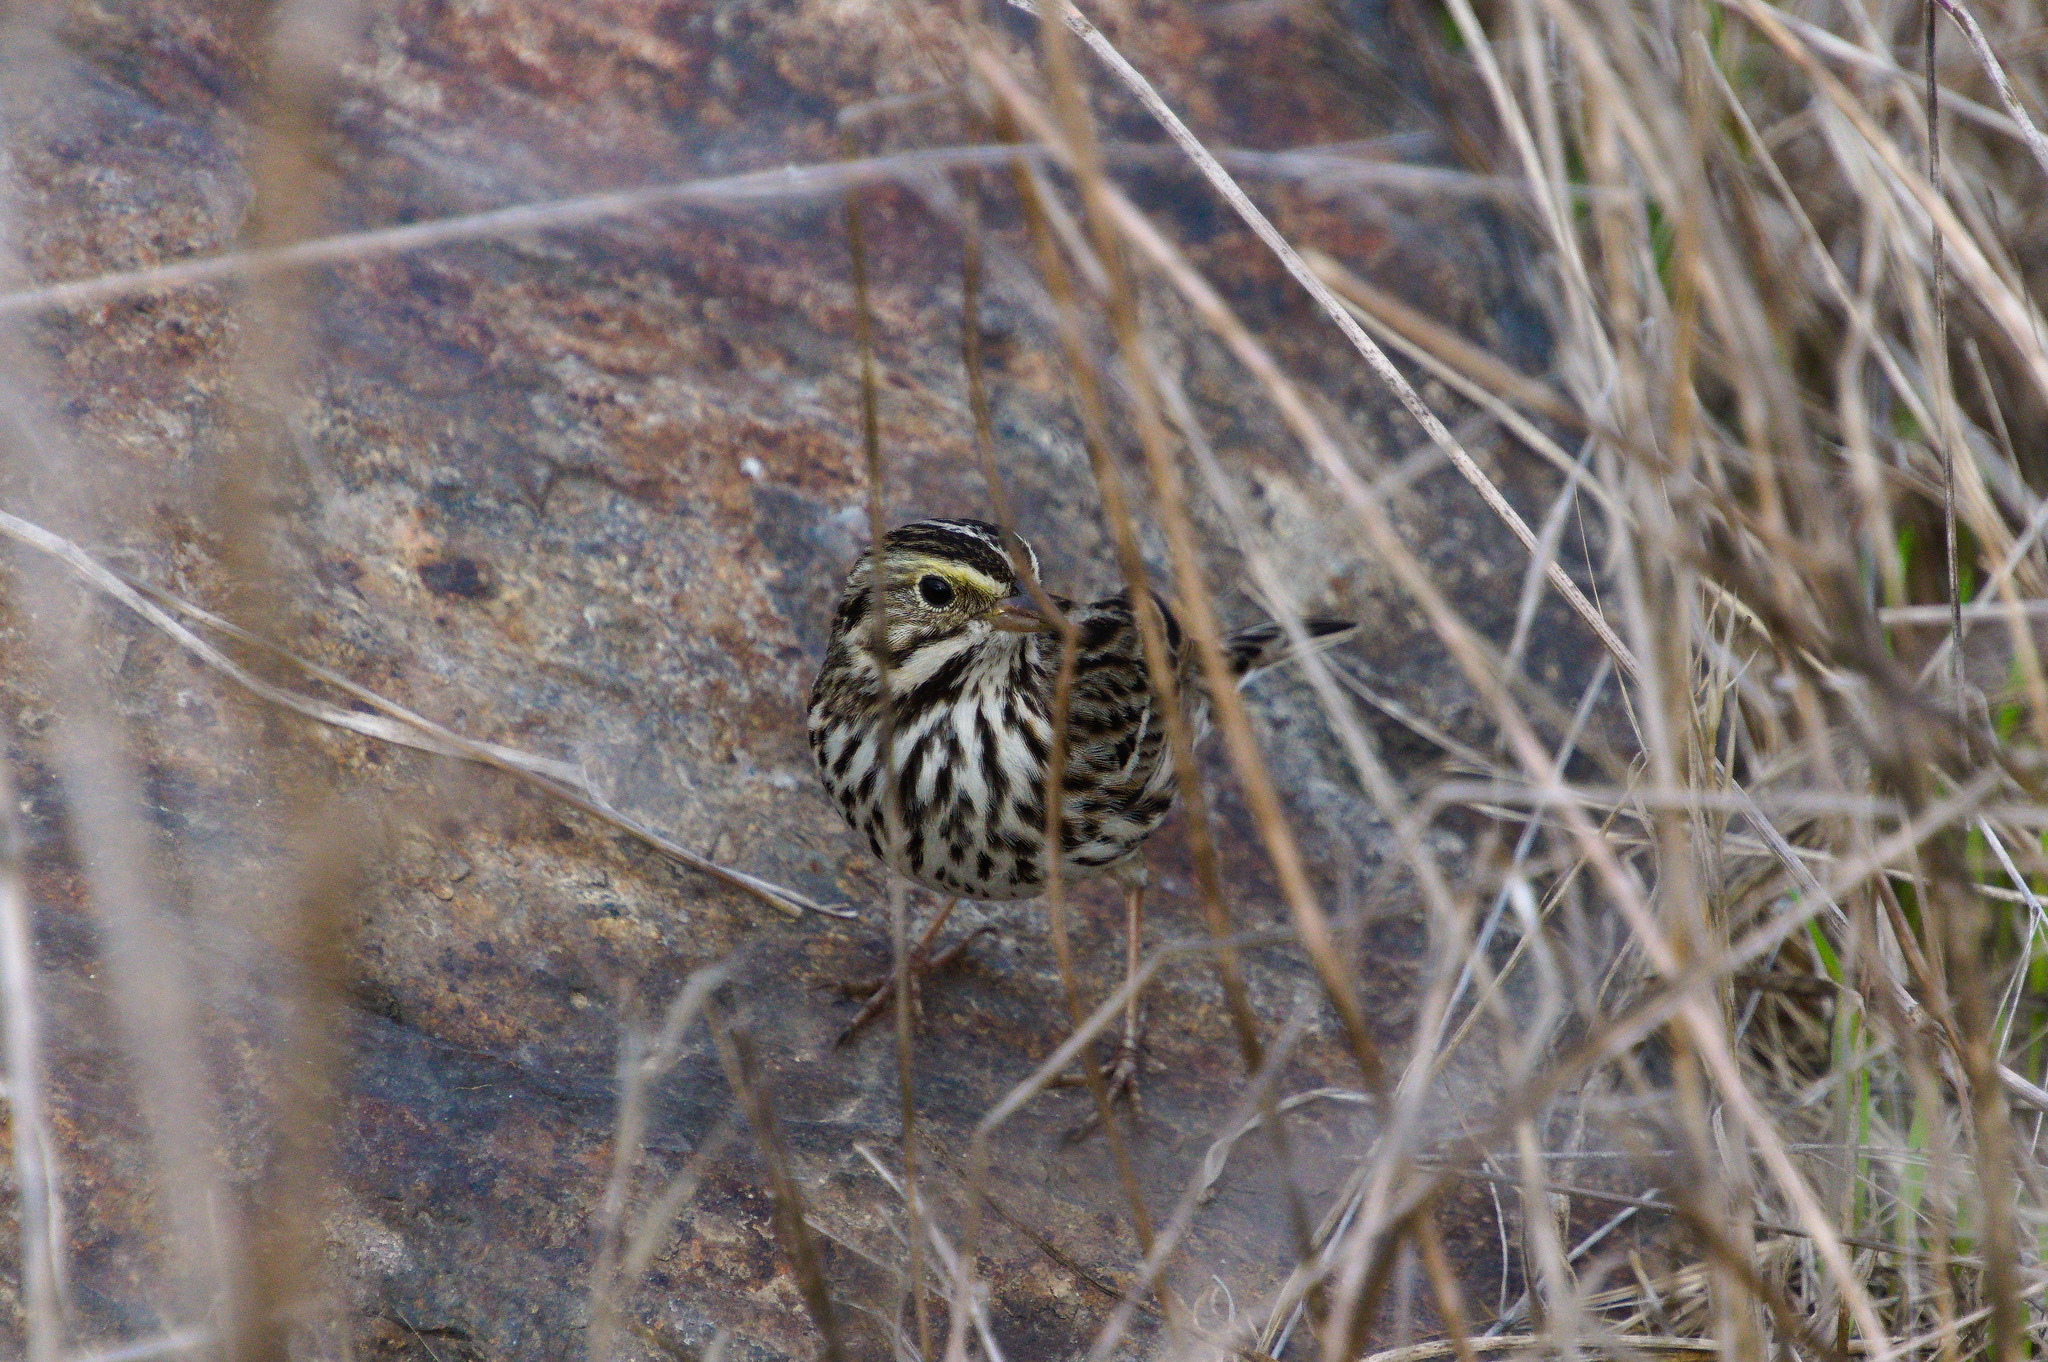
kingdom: Animalia
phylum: Chordata
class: Aves
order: Passeriformes
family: Passerellidae
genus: Passerculus
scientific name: Passerculus sandwichensis
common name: Savannah sparrow
